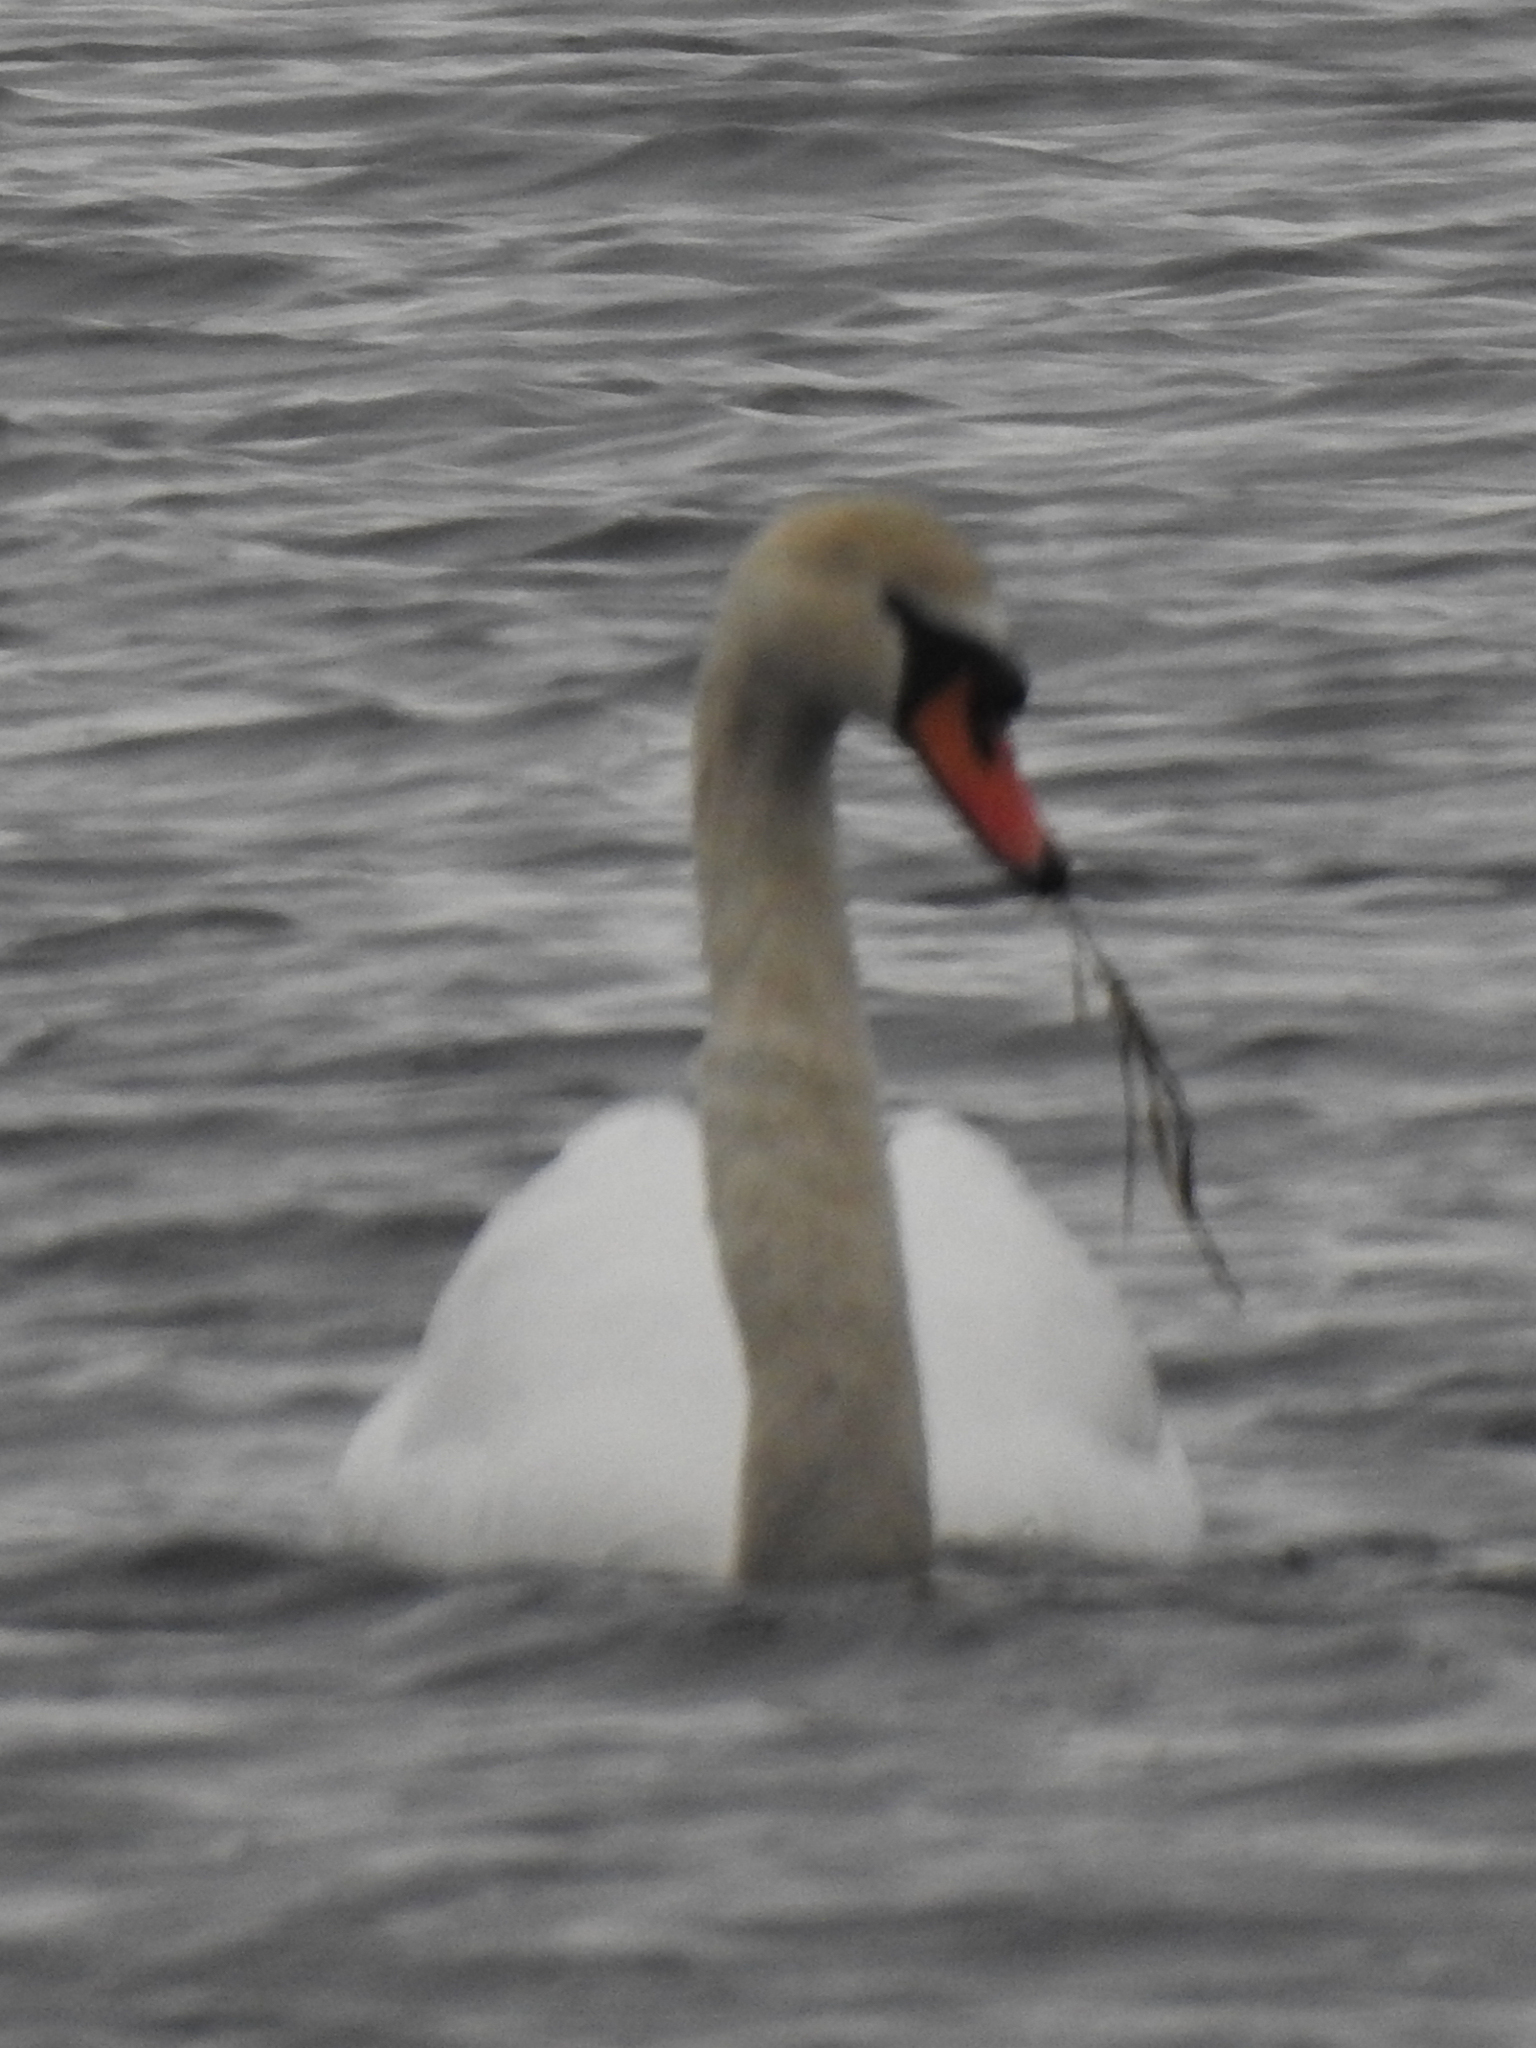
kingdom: Animalia
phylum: Chordata
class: Aves
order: Anseriformes
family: Anatidae
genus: Cygnus
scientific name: Cygnus olor
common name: Mute swan
